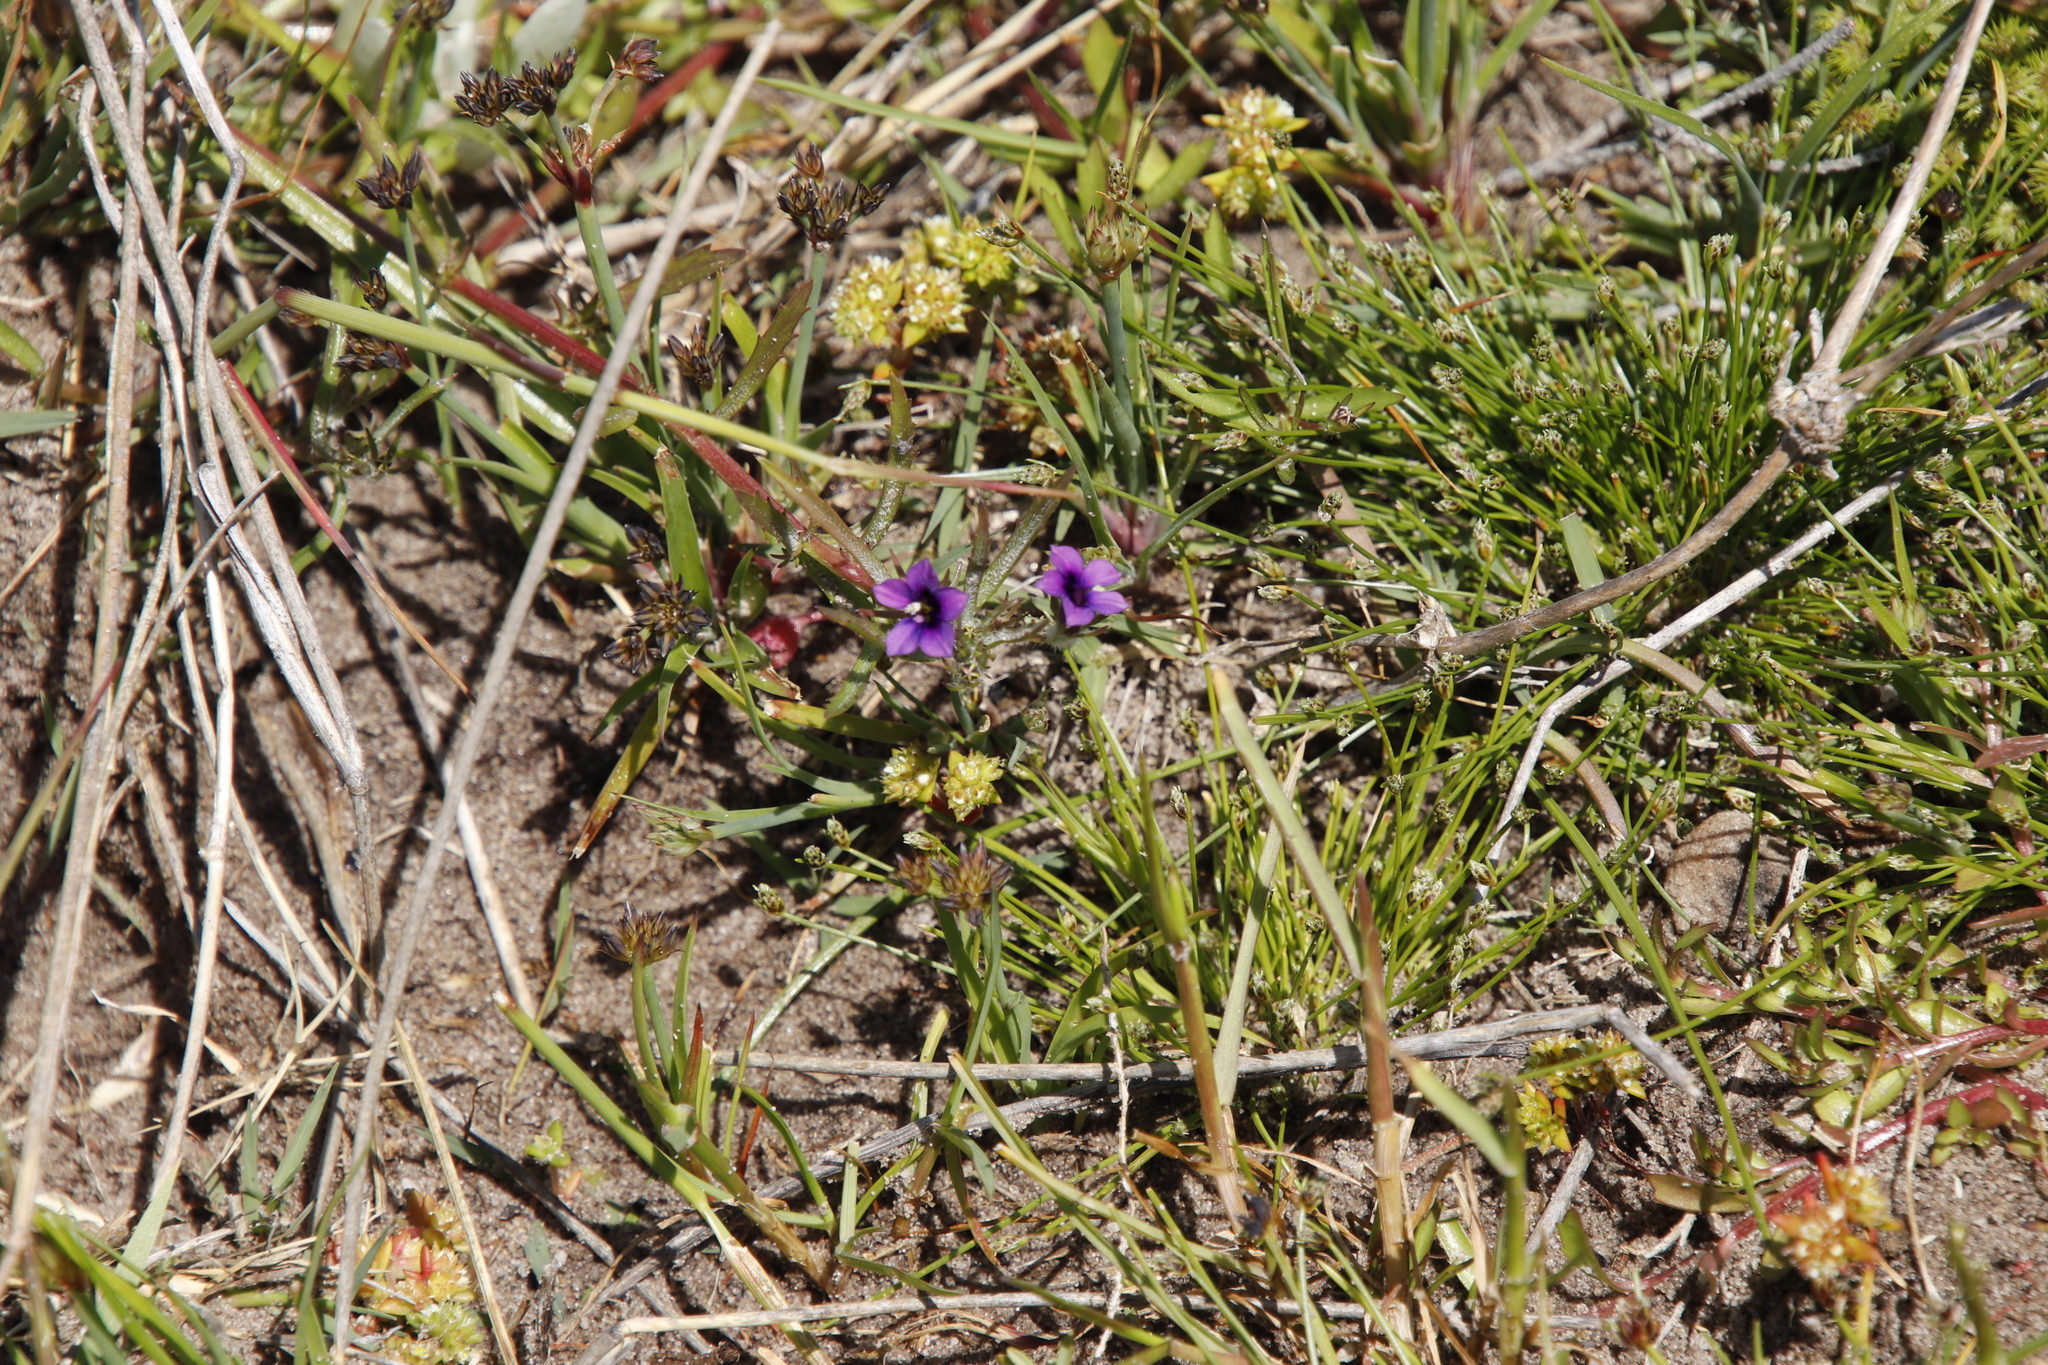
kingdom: Plantae
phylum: Tracheophyta
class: Magnoliopsida
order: Asterales
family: Campanulaceae
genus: Monopsis
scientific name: Monopsis debilis
